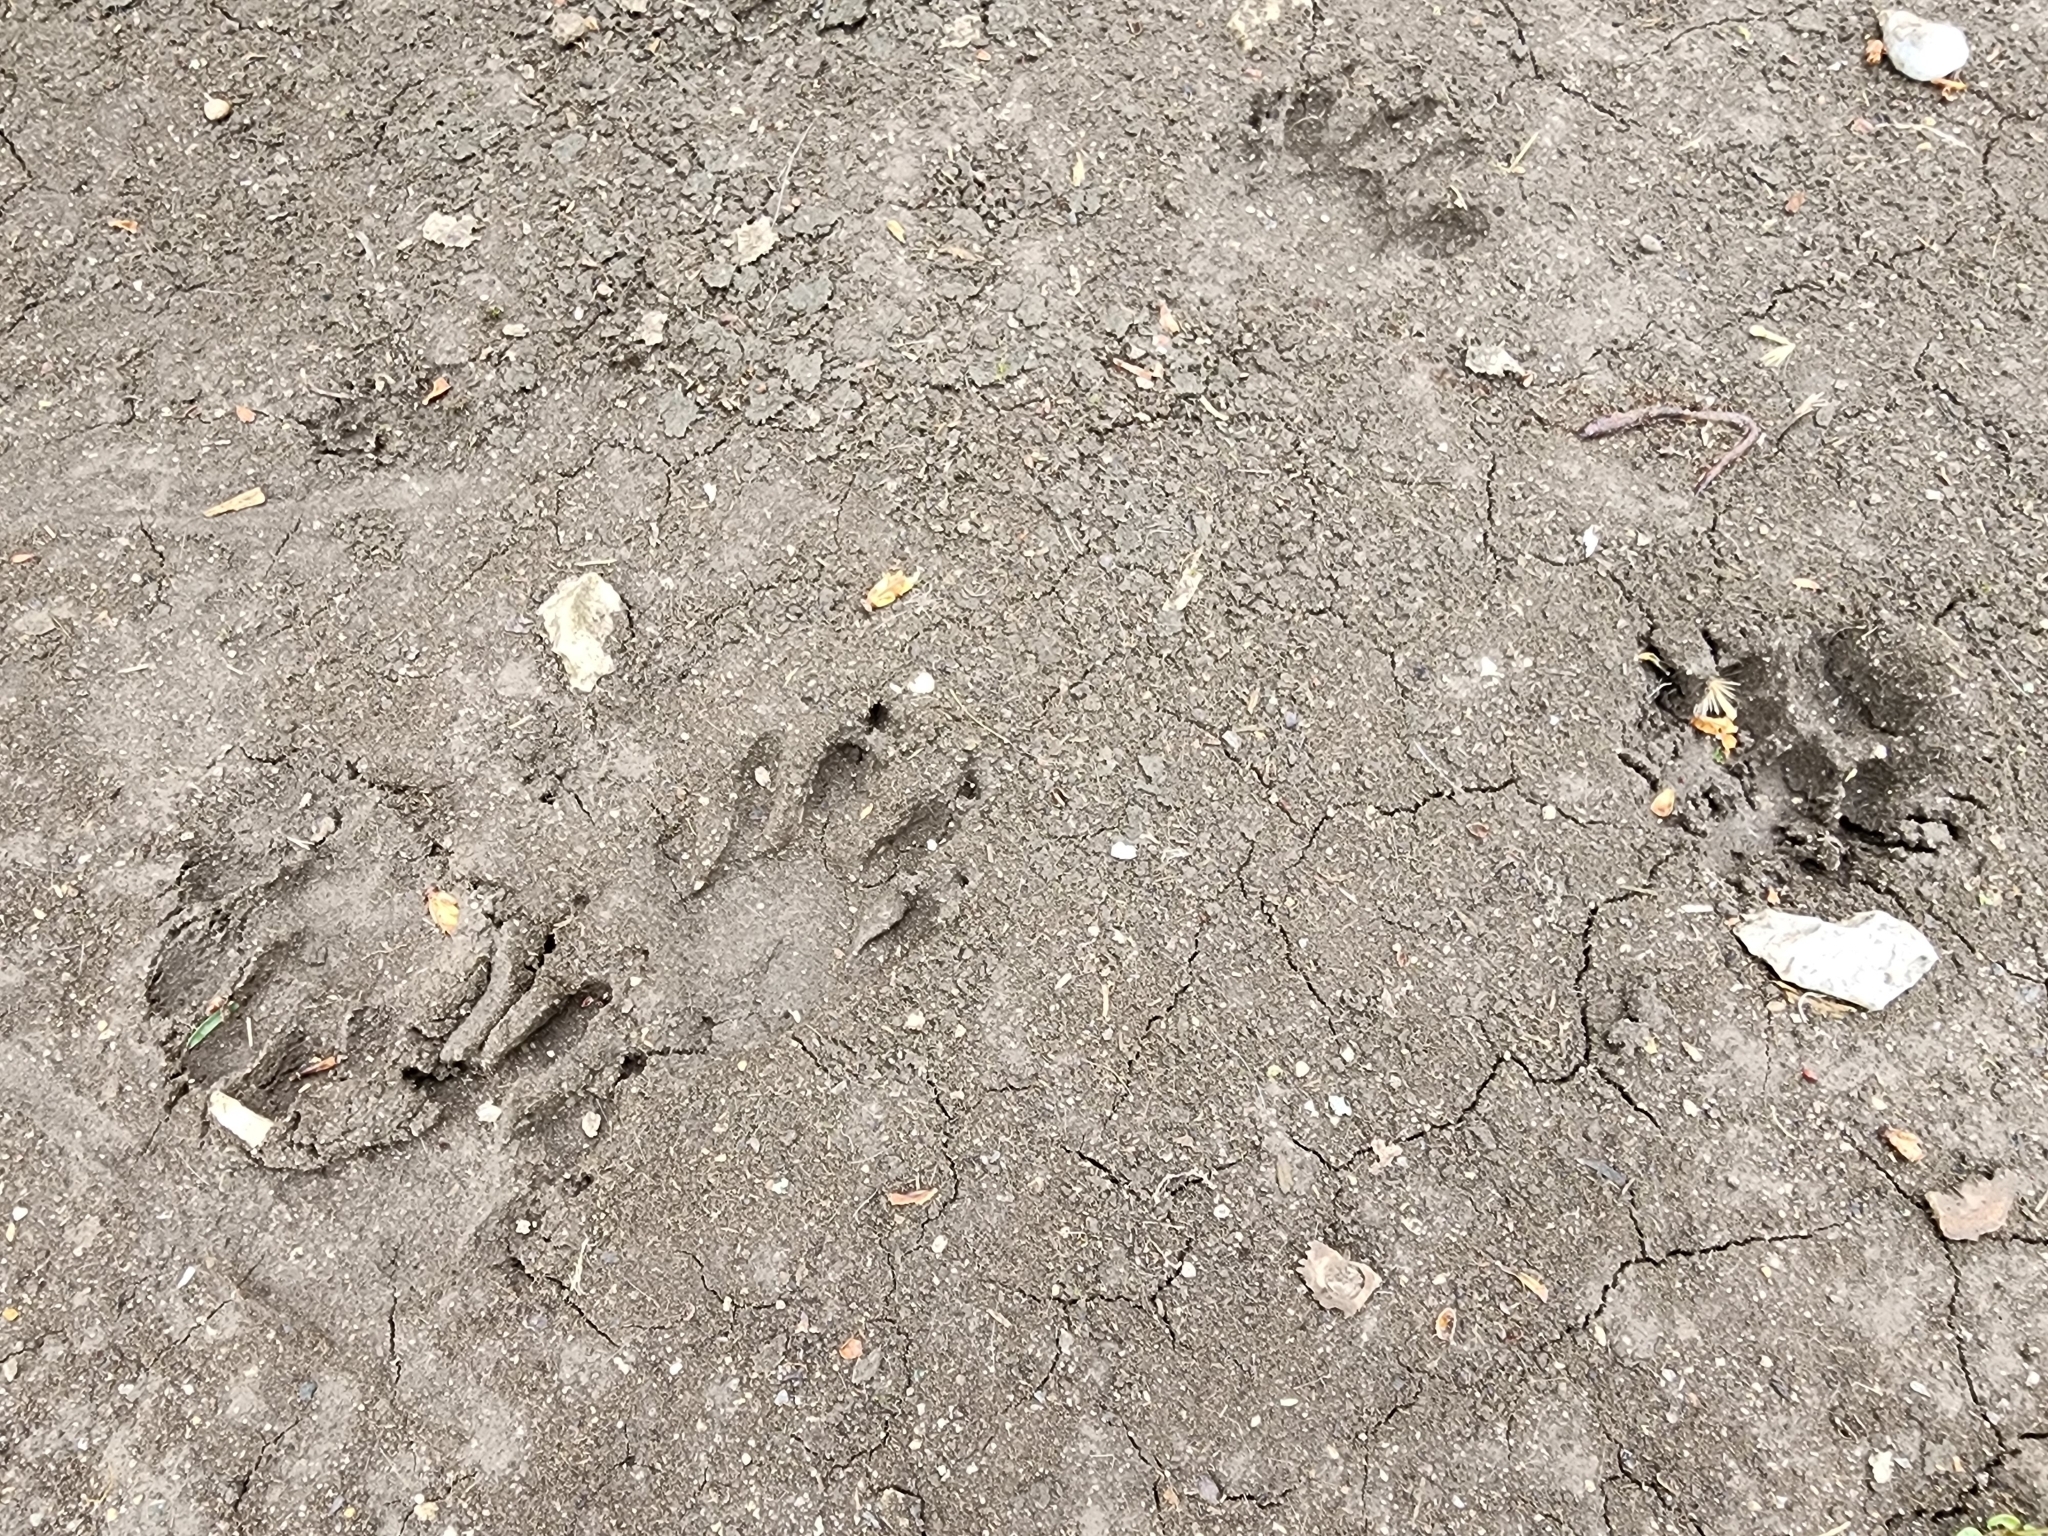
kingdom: Animalia
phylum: Chordata
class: Mammalia
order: Carnivora
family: Procyonidae
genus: Procyon
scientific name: Procyon lotor
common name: Raccoon
